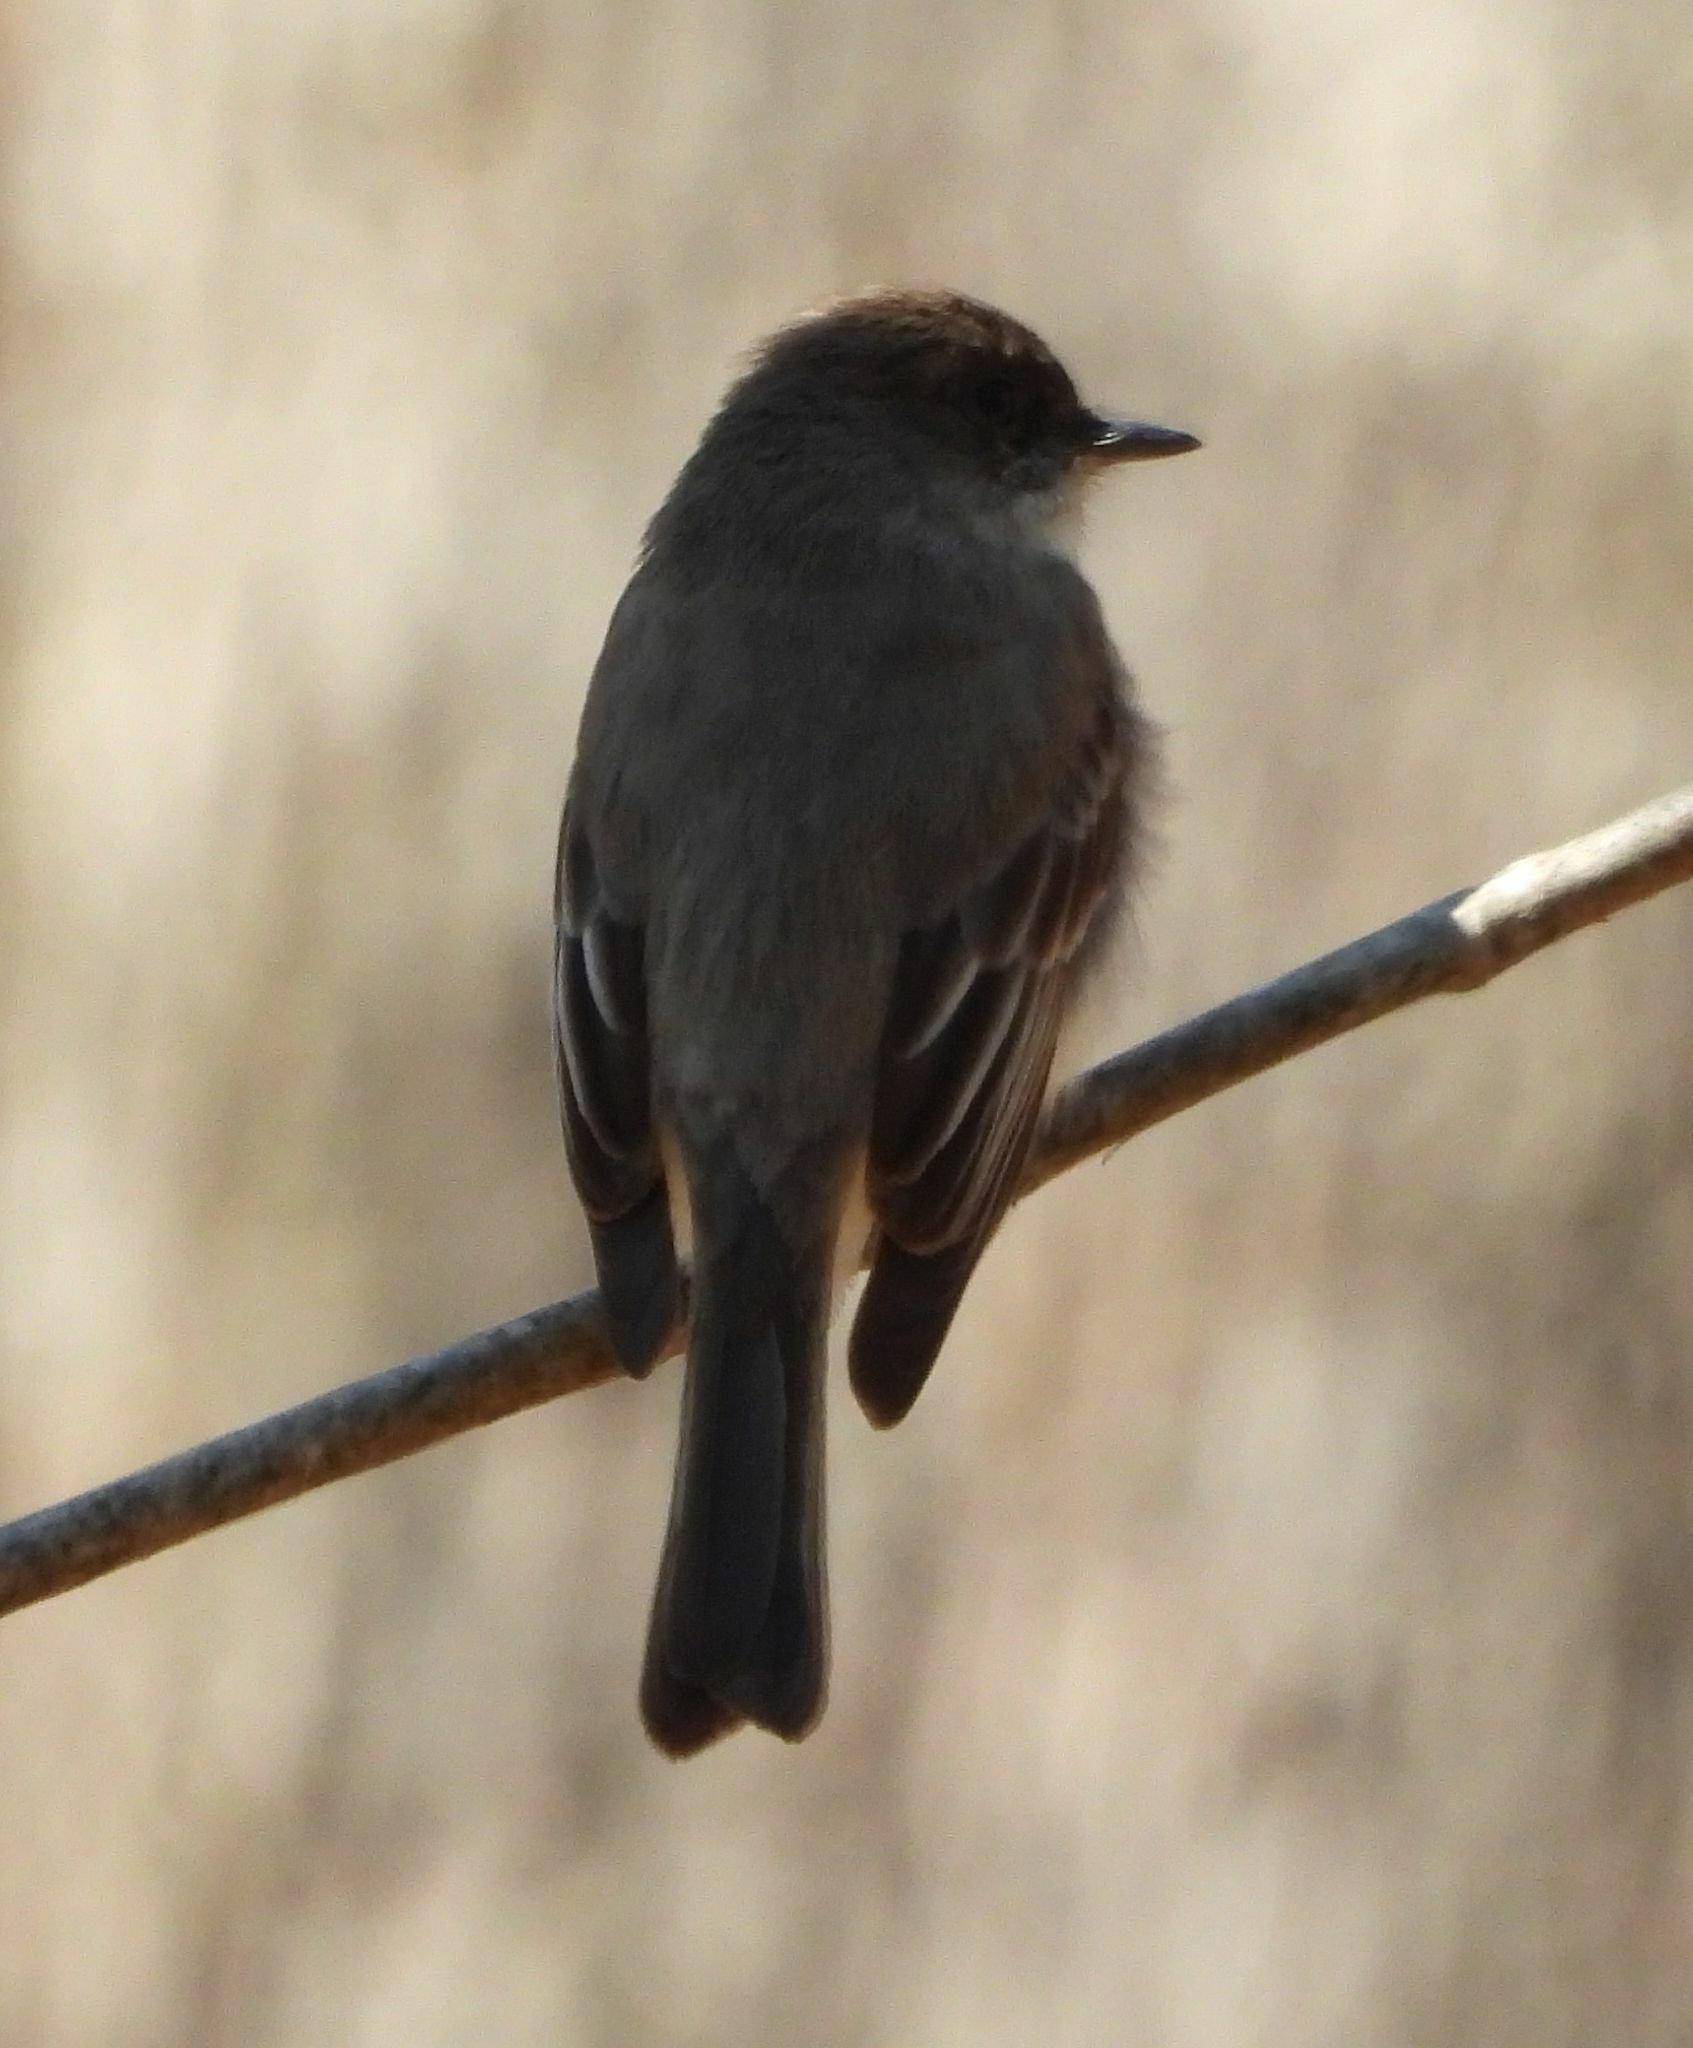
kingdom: Animalia
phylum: Chordata
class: Aves
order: Passeriformes
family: Tyrannidae
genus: Sayornis
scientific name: Sayornis phoebe
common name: Eastern phoebe
